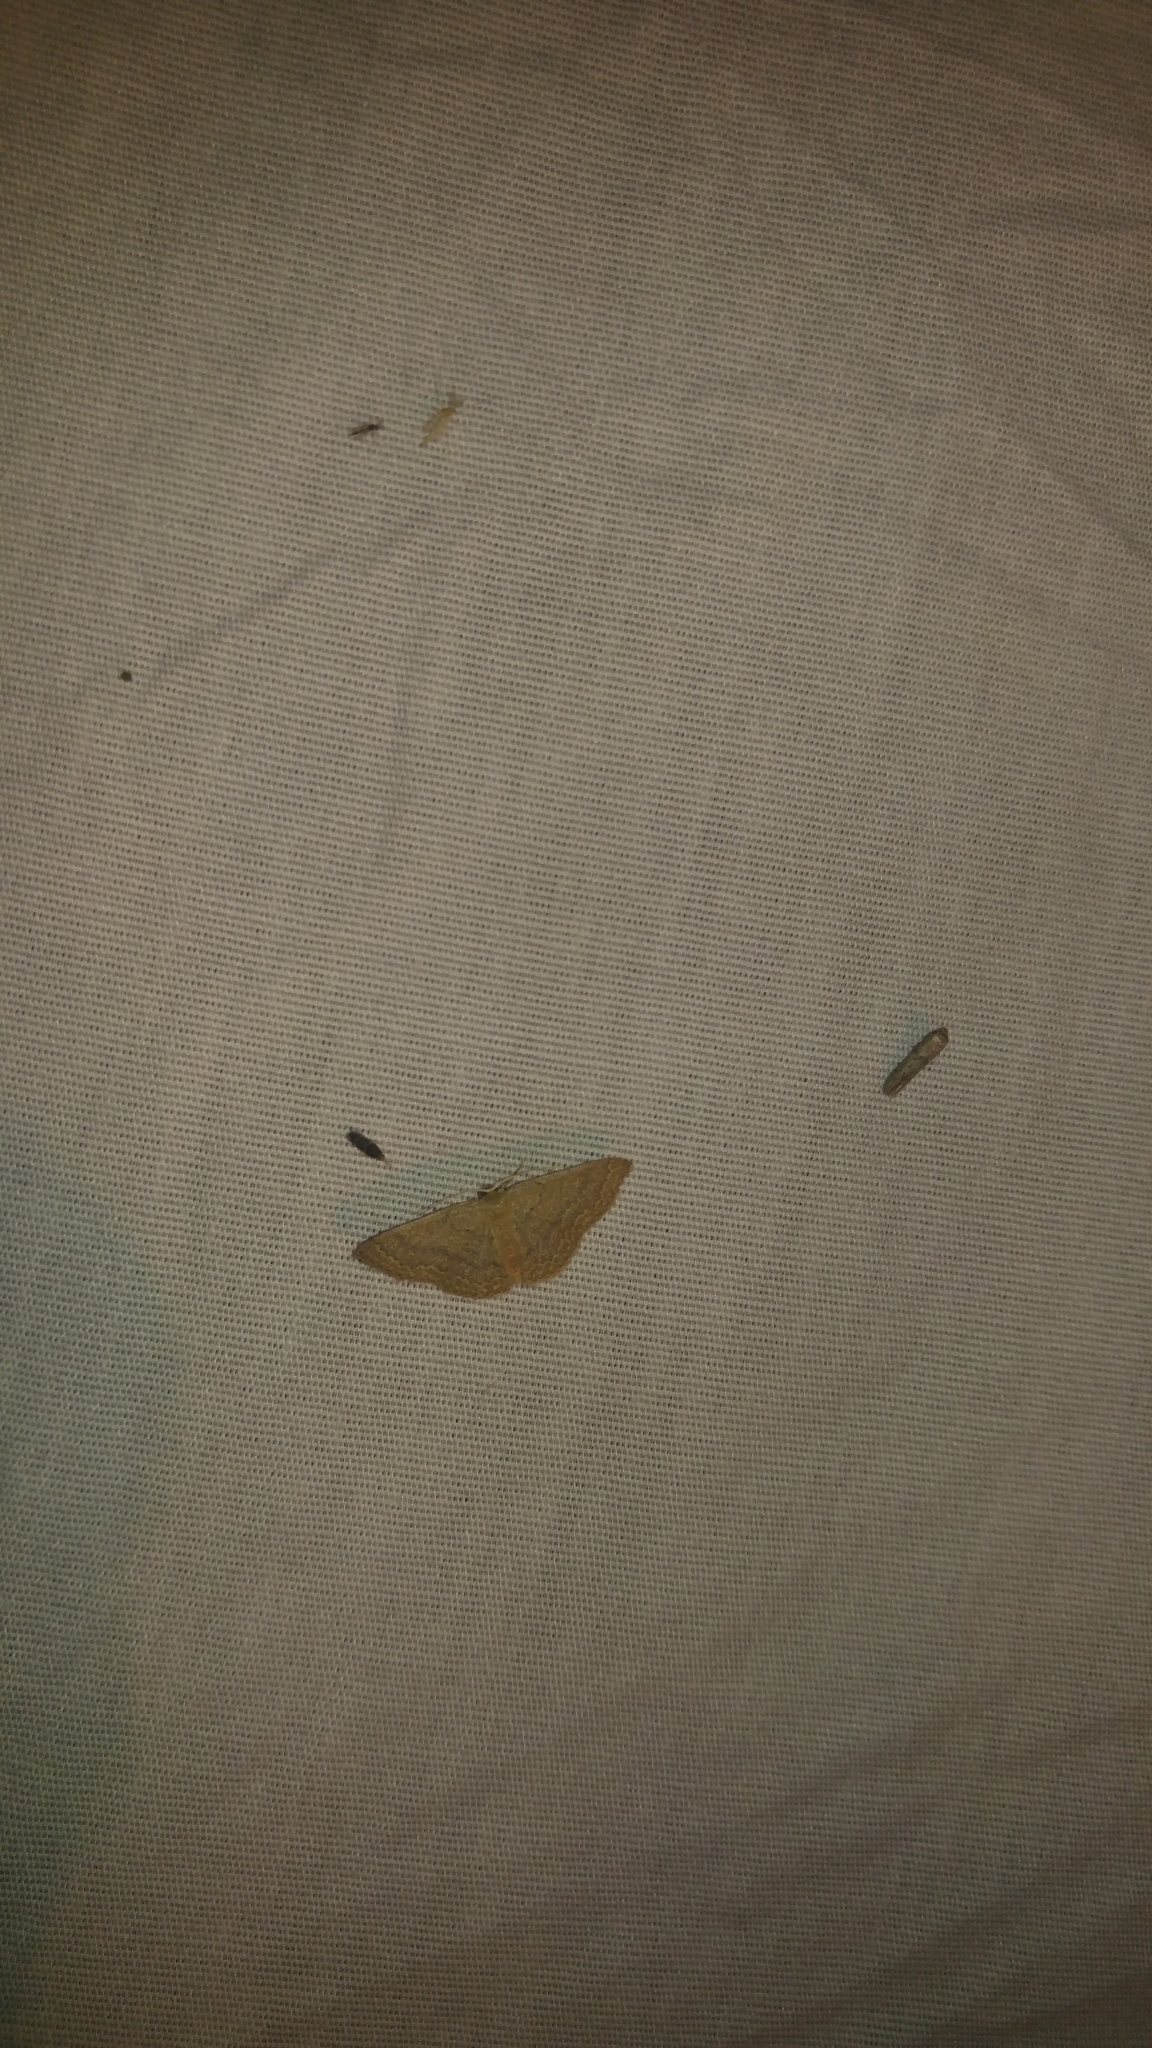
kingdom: Animalia
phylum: Arthropoda
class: Insecta
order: Lepidoptera
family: Geometridae
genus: Pleuroprucha
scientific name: Pleuroprucha insulsaria
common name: Common tan wave
